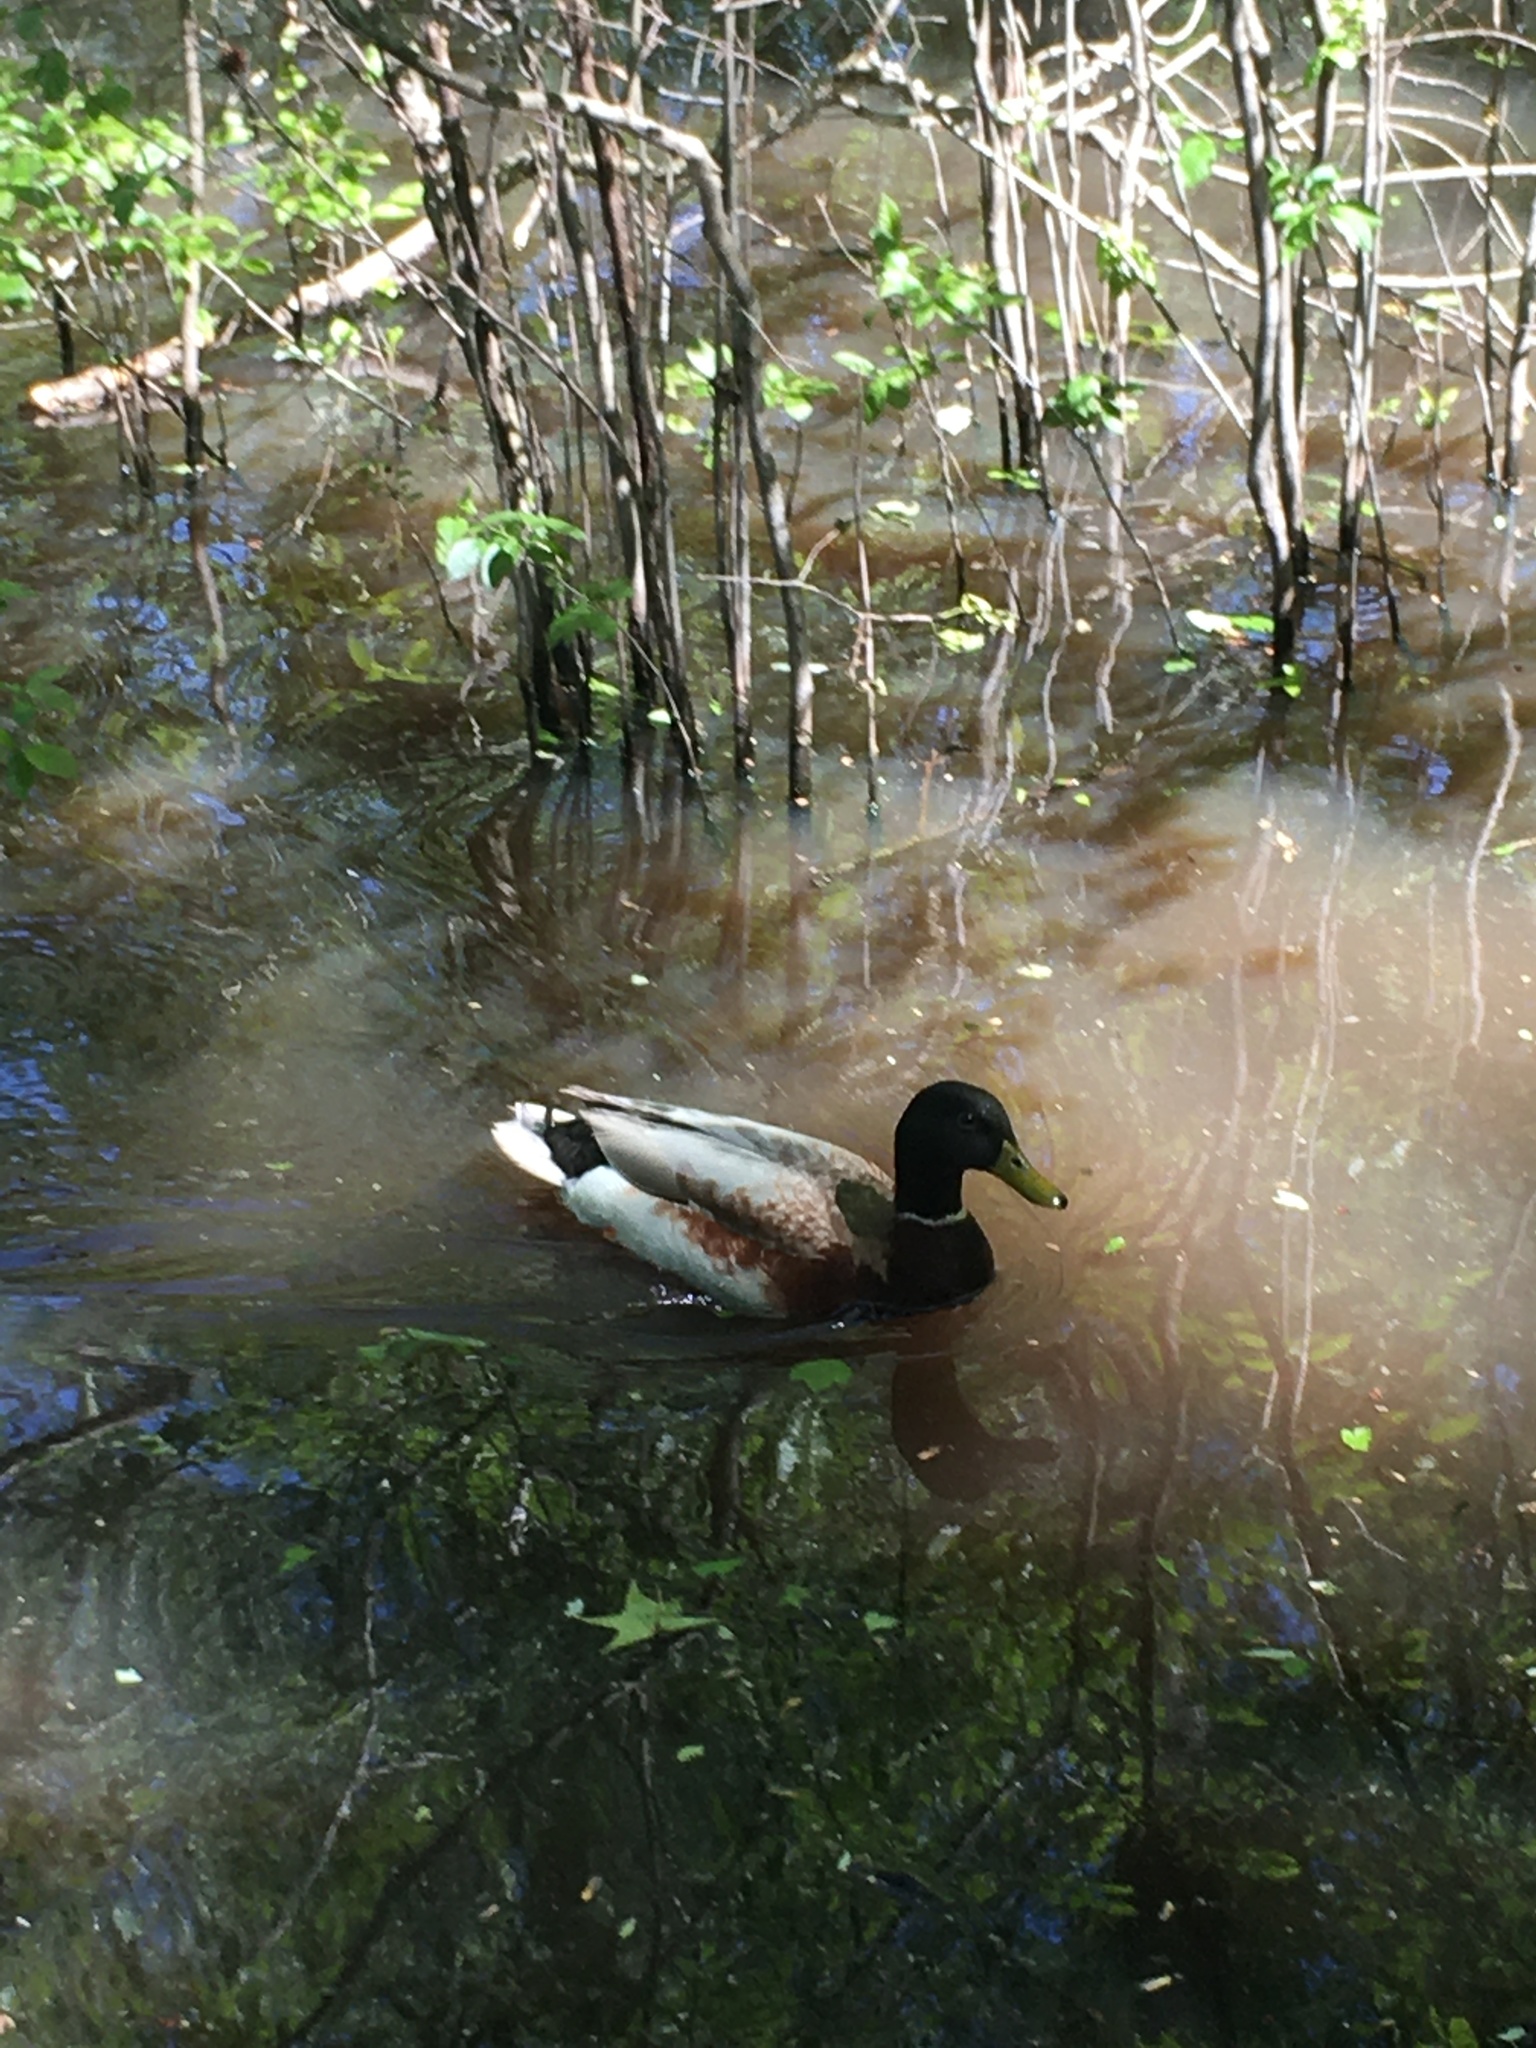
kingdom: Animalia
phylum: Chordata
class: Aves
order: Anseriformes
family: Anatidae
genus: Anas
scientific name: Anas platyrhynchos
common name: Mallard
